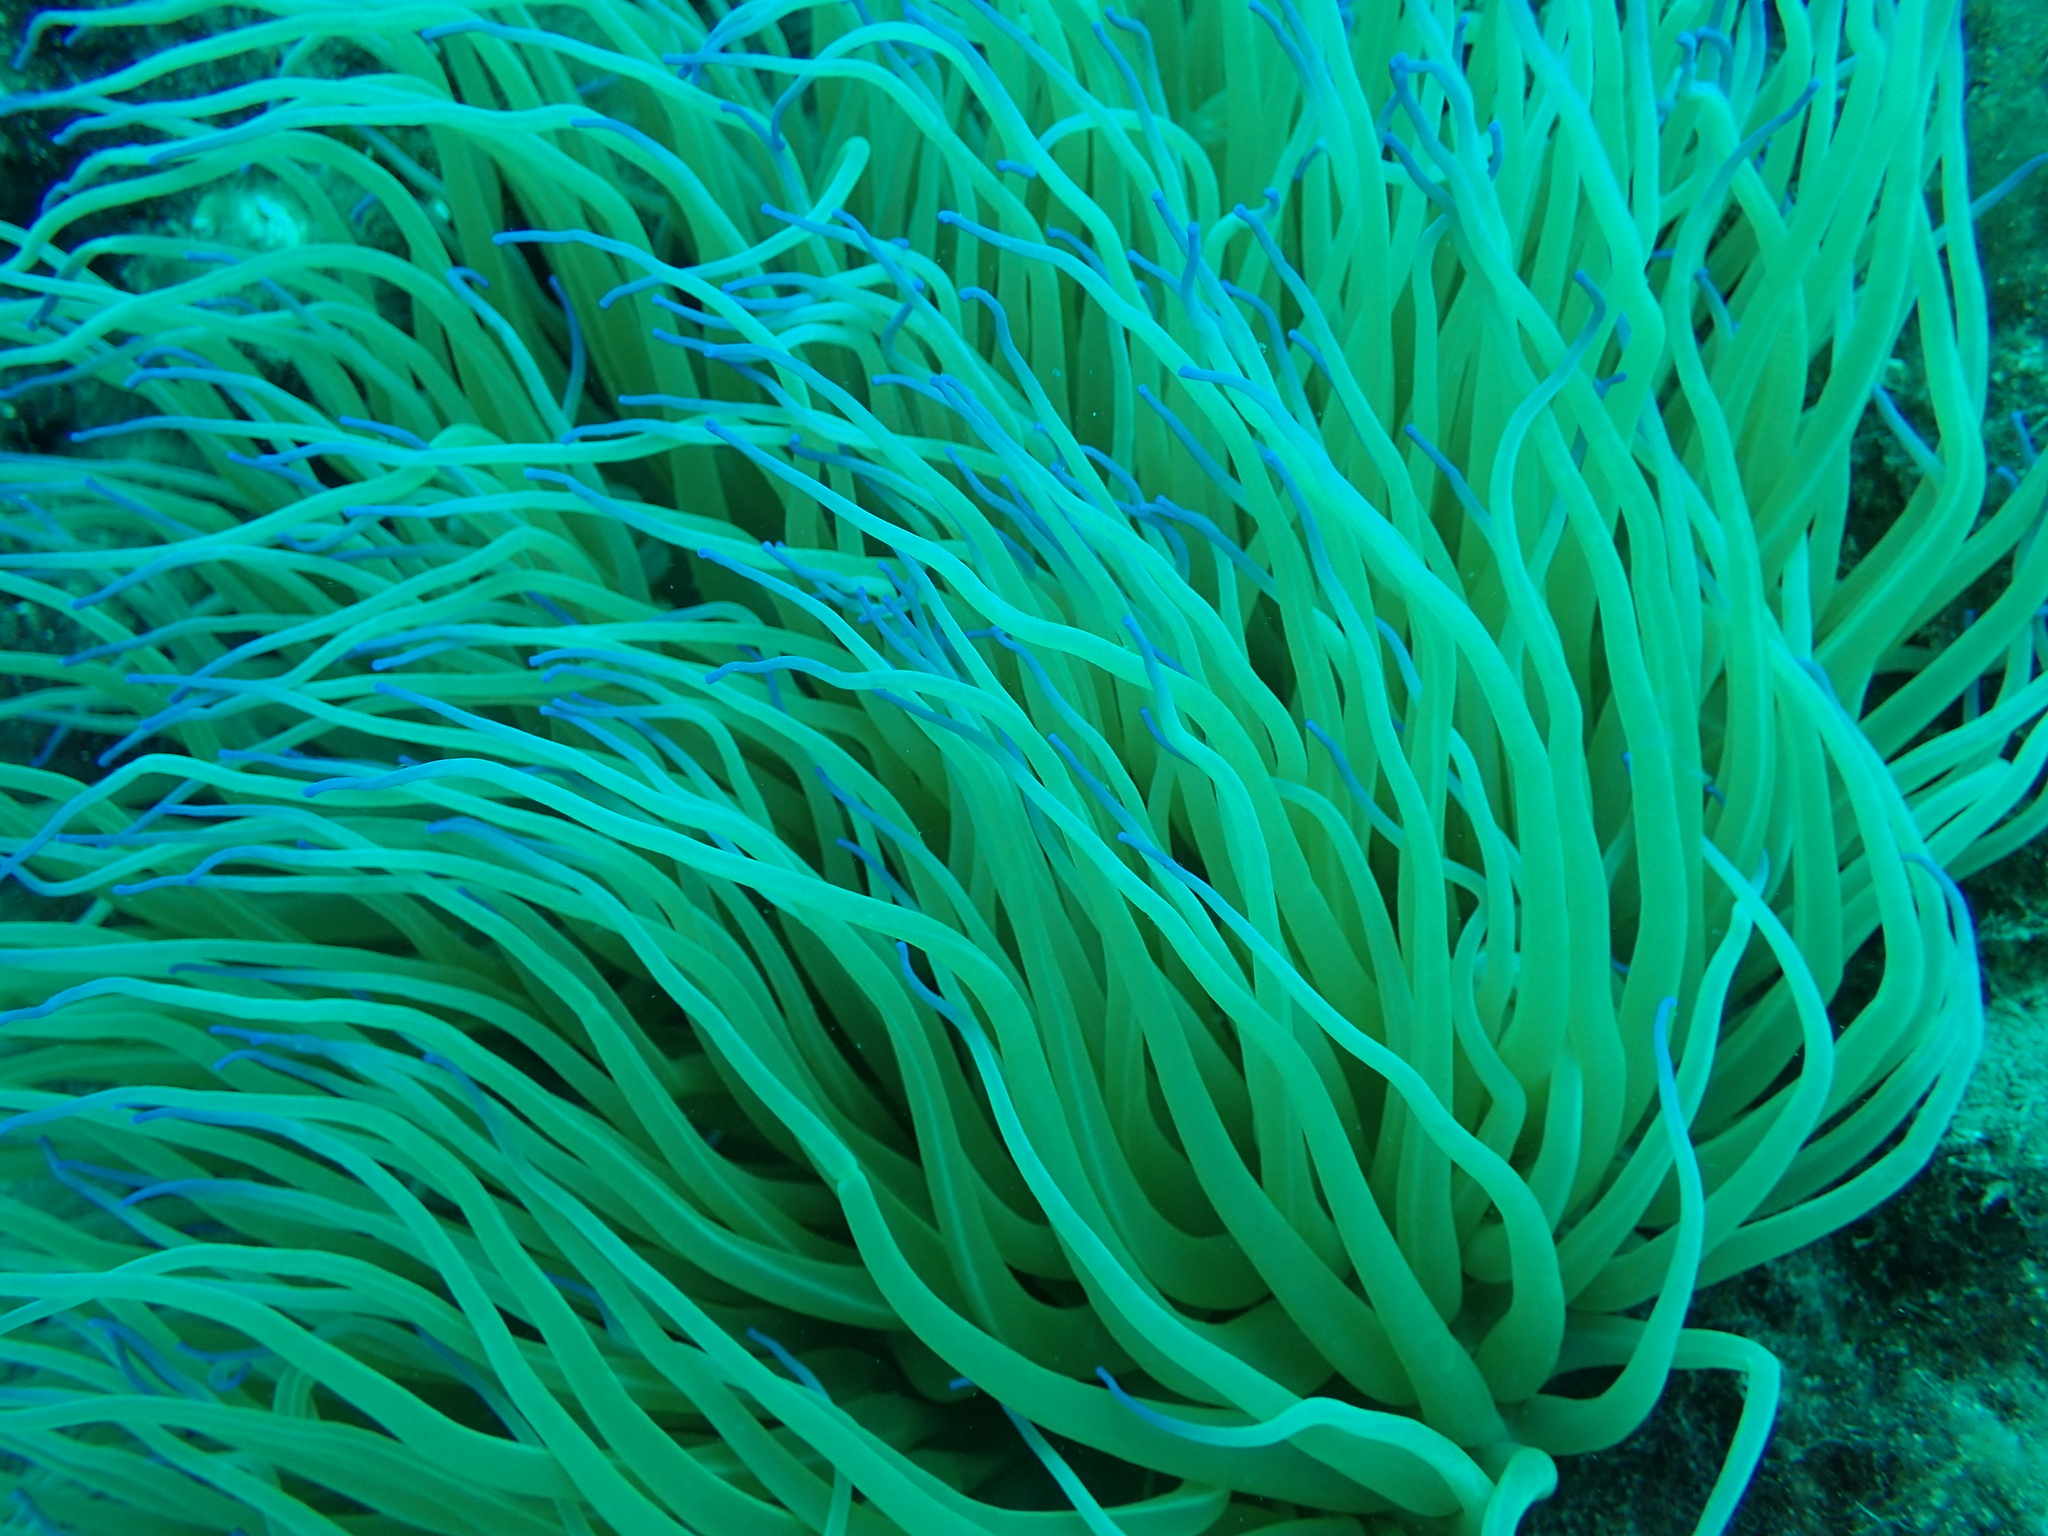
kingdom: Animalia
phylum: Cnidaria
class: Anthozoa
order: Actiniaria
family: Actiniidae
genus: Anemonia
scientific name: Anemonia viridis
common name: Snakelocks anemone
